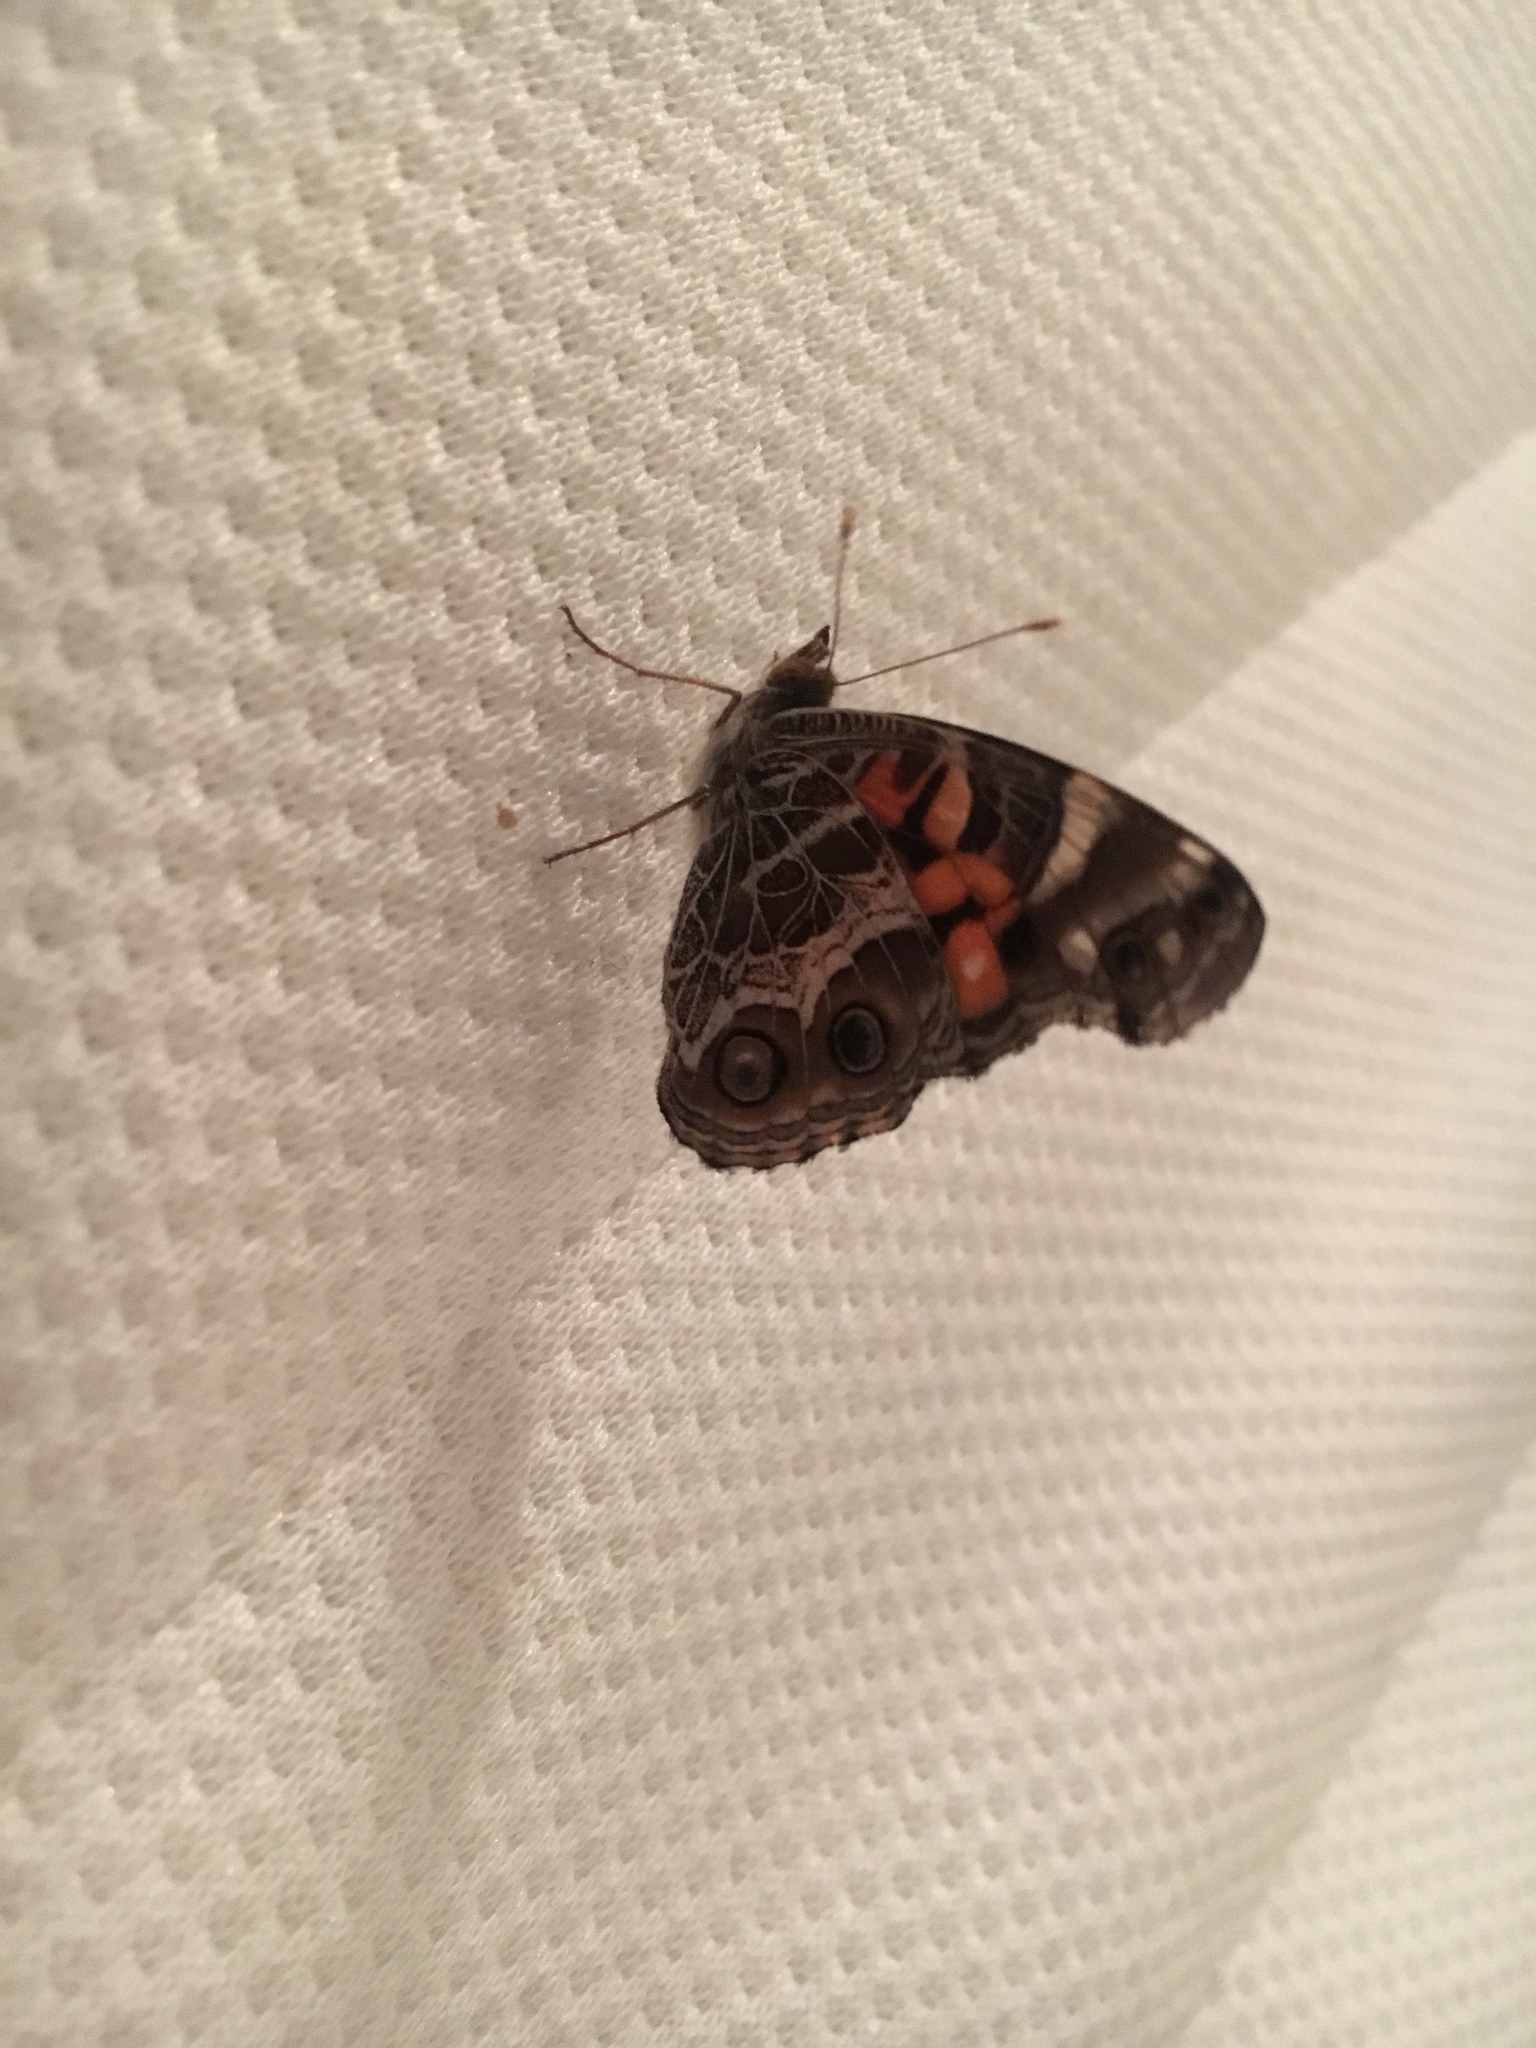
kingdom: Animalia
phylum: Arthropoda
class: Insecta
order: Lepidoptera
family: Nymphalidae
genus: Vanessa
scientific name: Vanessa virginiensis
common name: American lady
